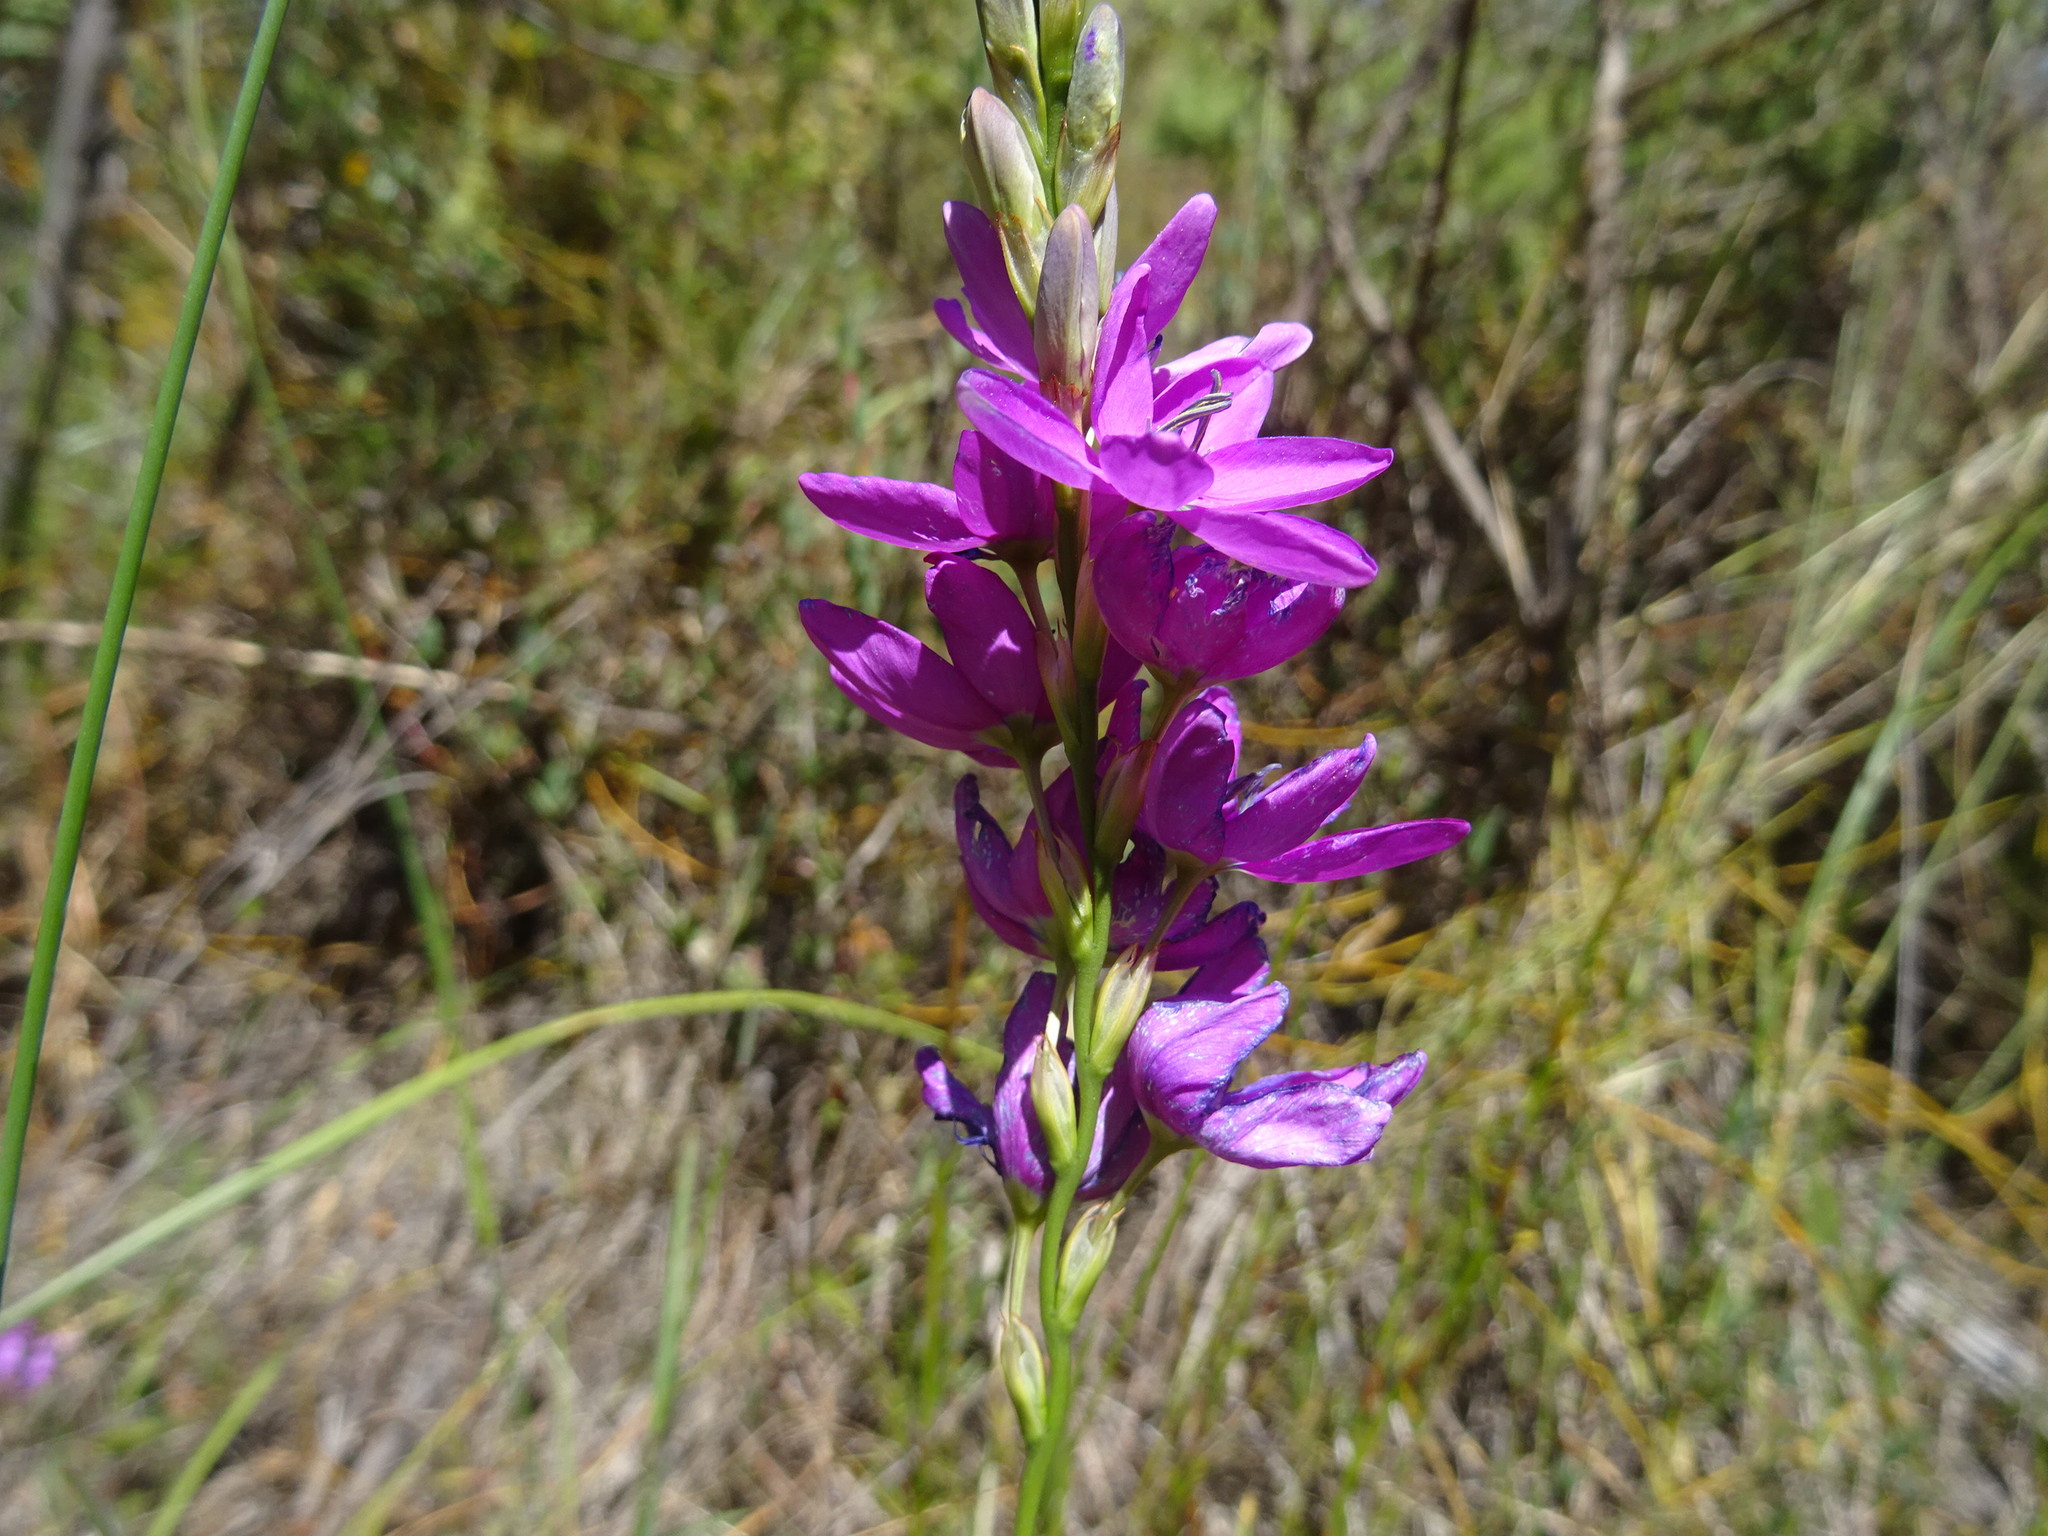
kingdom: Plantae
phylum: Tracheophyta
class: Liliopsida
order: Asparagales
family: Iridaceae
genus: Ixia
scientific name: Ixia polystachya
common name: White-and-yellow-flower cornlily
